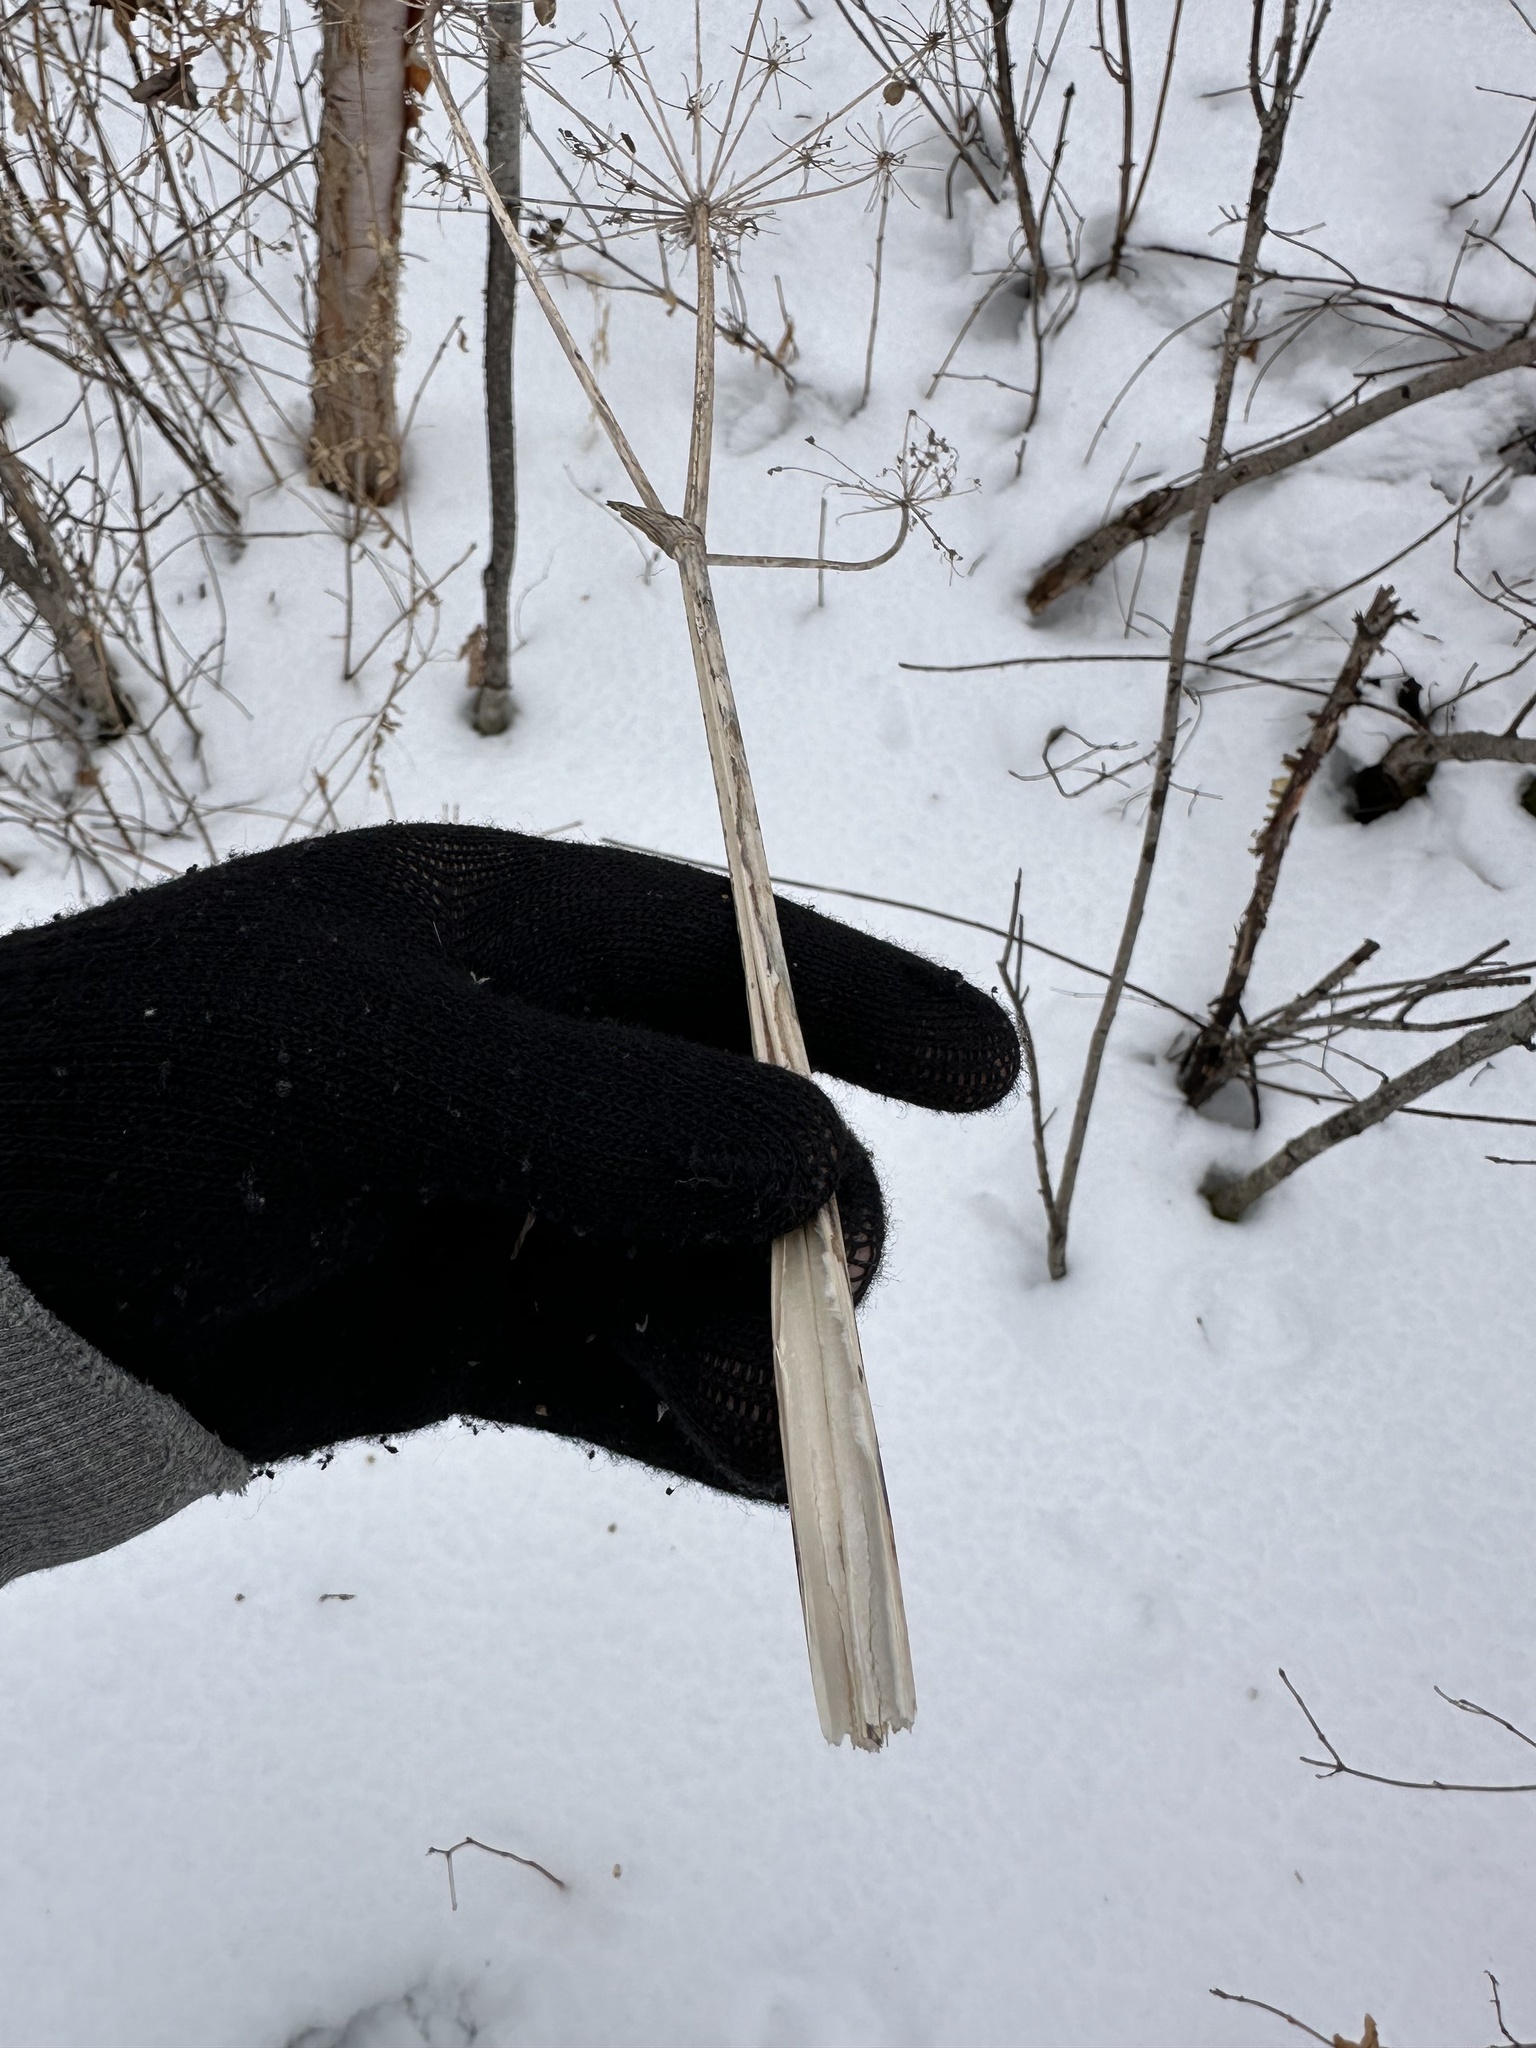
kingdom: Plantae
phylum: Tracheophyta
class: Magnoliopsida
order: Apiales
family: Apiaceae
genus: Heracleum
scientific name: Heracleum maximum
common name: American cow parsnip
